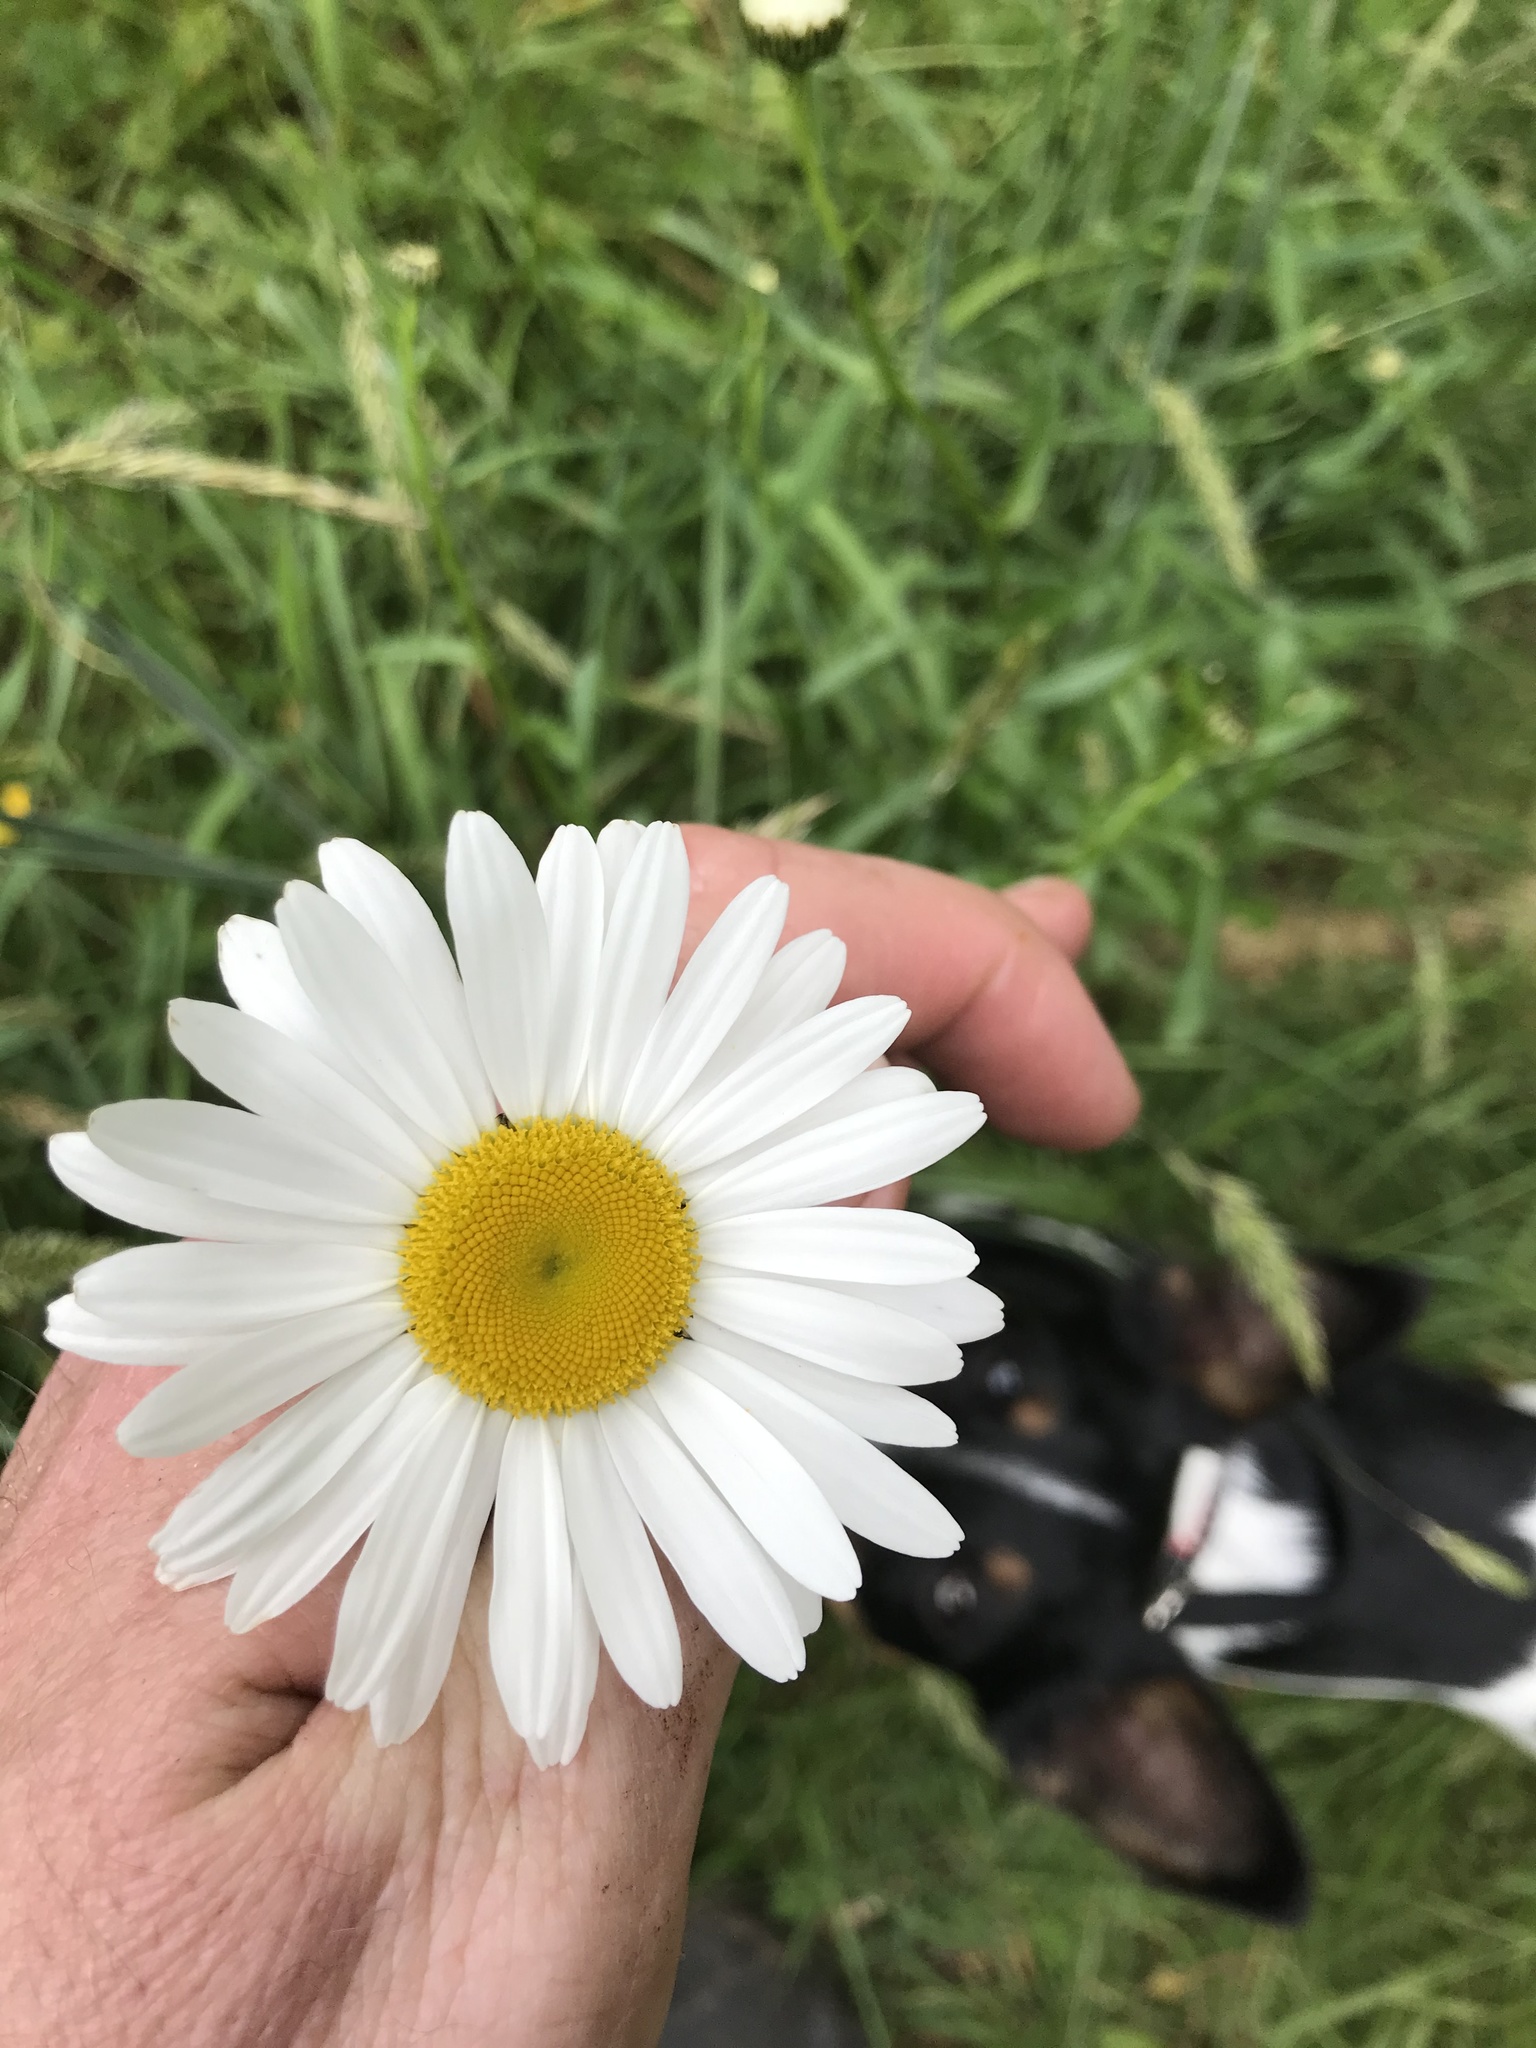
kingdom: Plantae
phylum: Tracheophyta
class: Magnoliopsida
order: Asterales
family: Asteraceae
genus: Leucanthemum
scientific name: Leucanthemum vulgare
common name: Oxeye daisy
